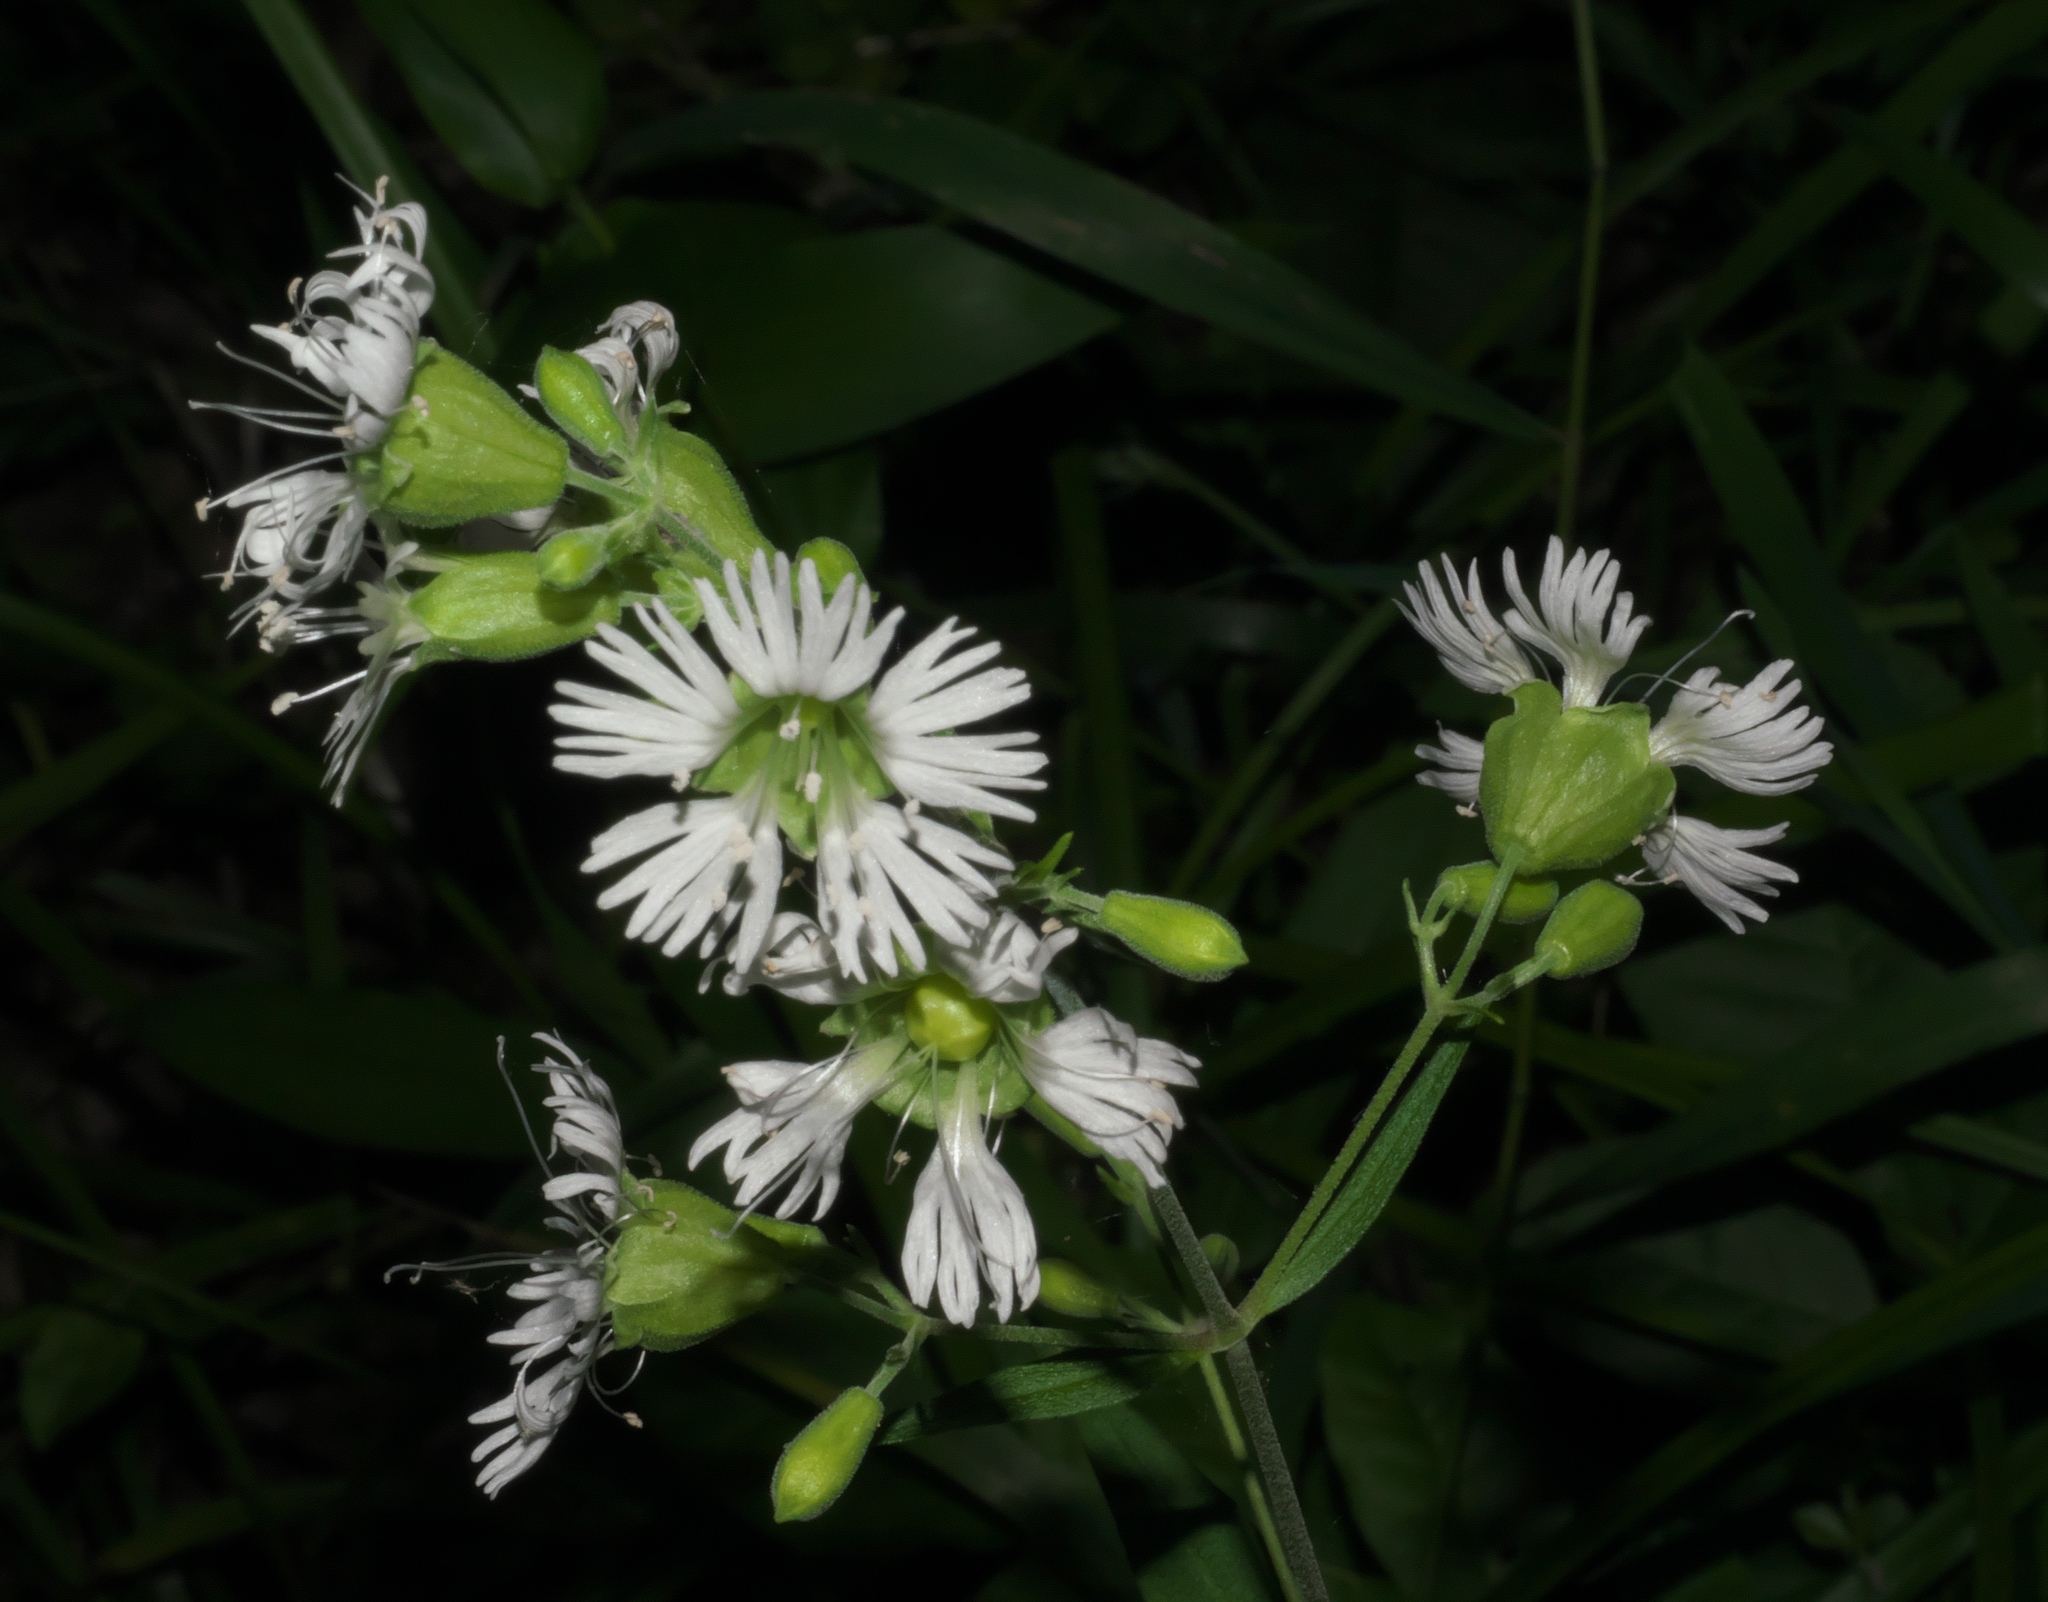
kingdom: Plantae
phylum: Tracheophyta
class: Magnoliopsida
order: Caryophyllales
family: Caryophyllaceae
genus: Silene
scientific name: Silene stellata
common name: Starry campion
